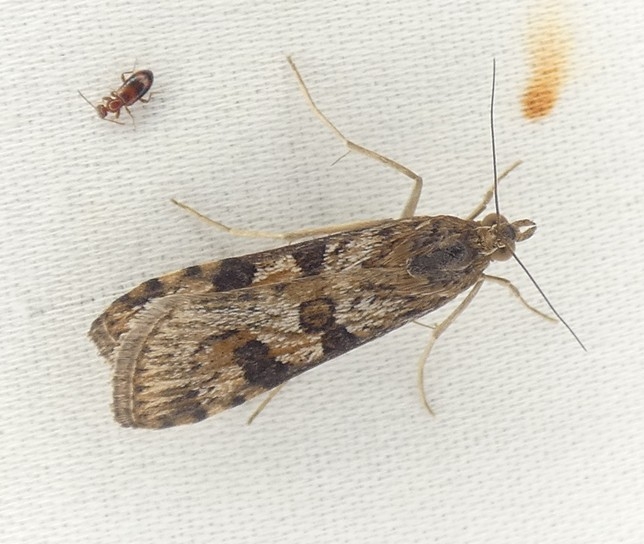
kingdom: Animalia
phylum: Arthropoda
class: Insecta
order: Lepidoptera
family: Crambidae
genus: Nomophila
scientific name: Nomophila nearctica
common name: American rush veneer
